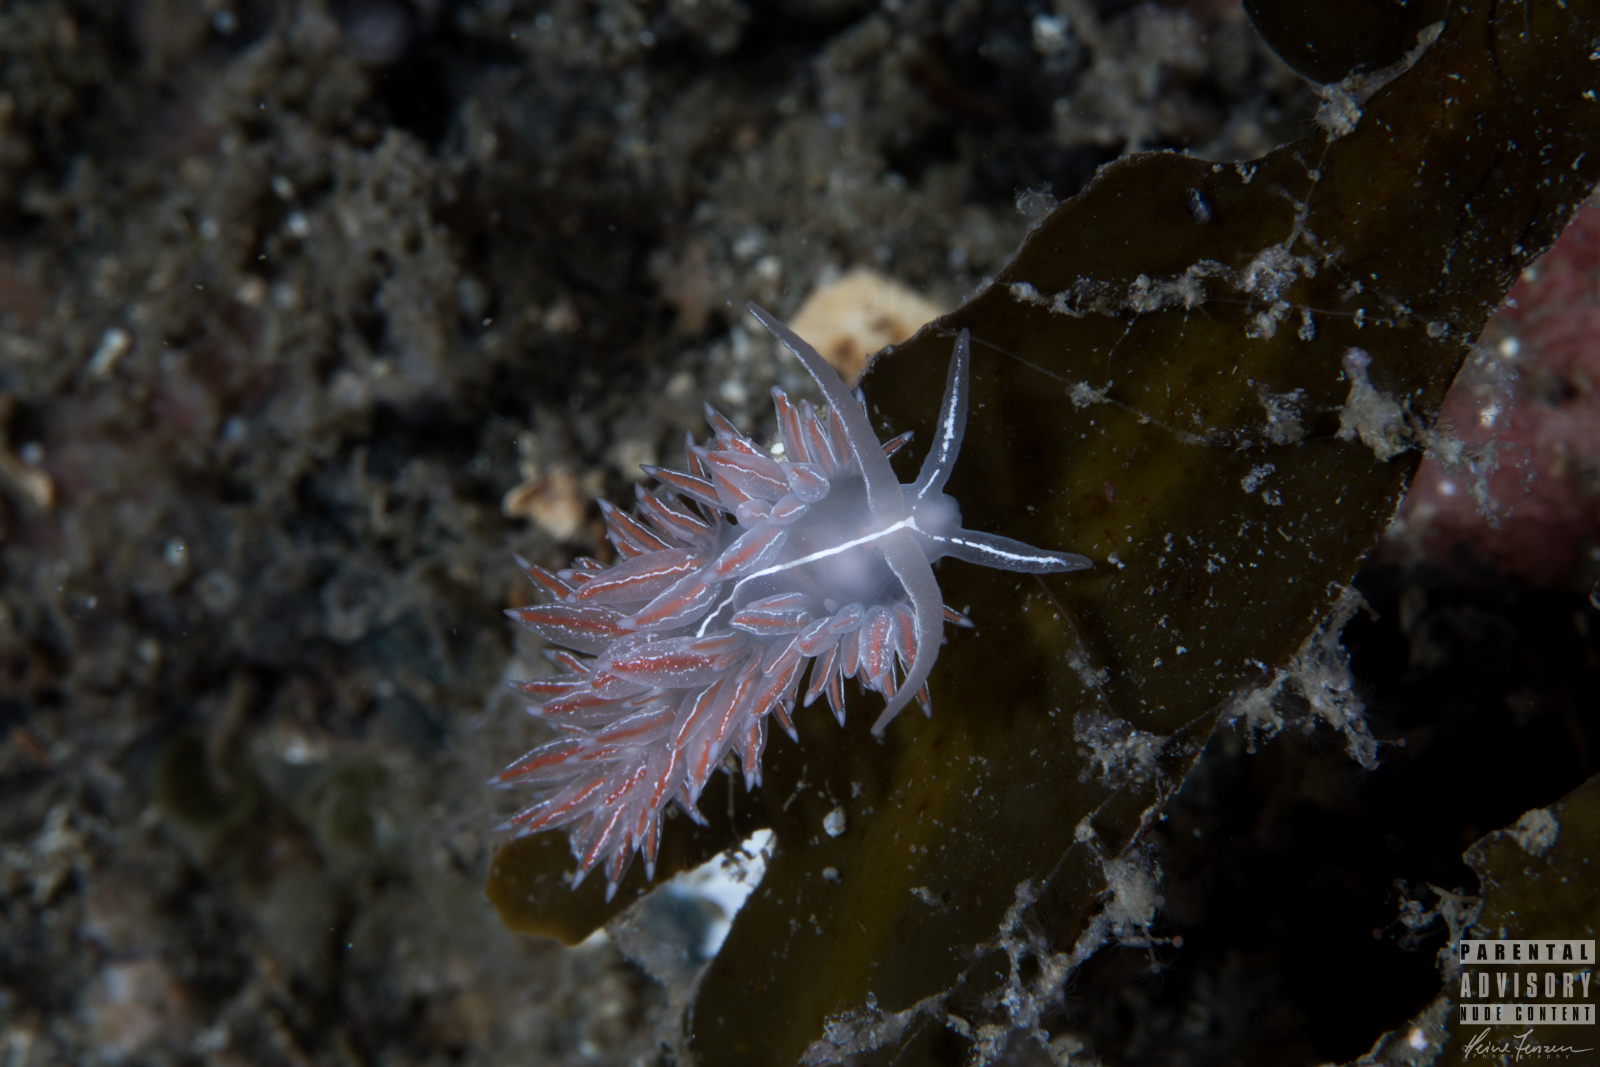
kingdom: Animalia
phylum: Mollusca
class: Gastropoda
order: Nudibranchia
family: Coryphellidae
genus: Coryphella
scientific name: Coryphella chriskaugei
